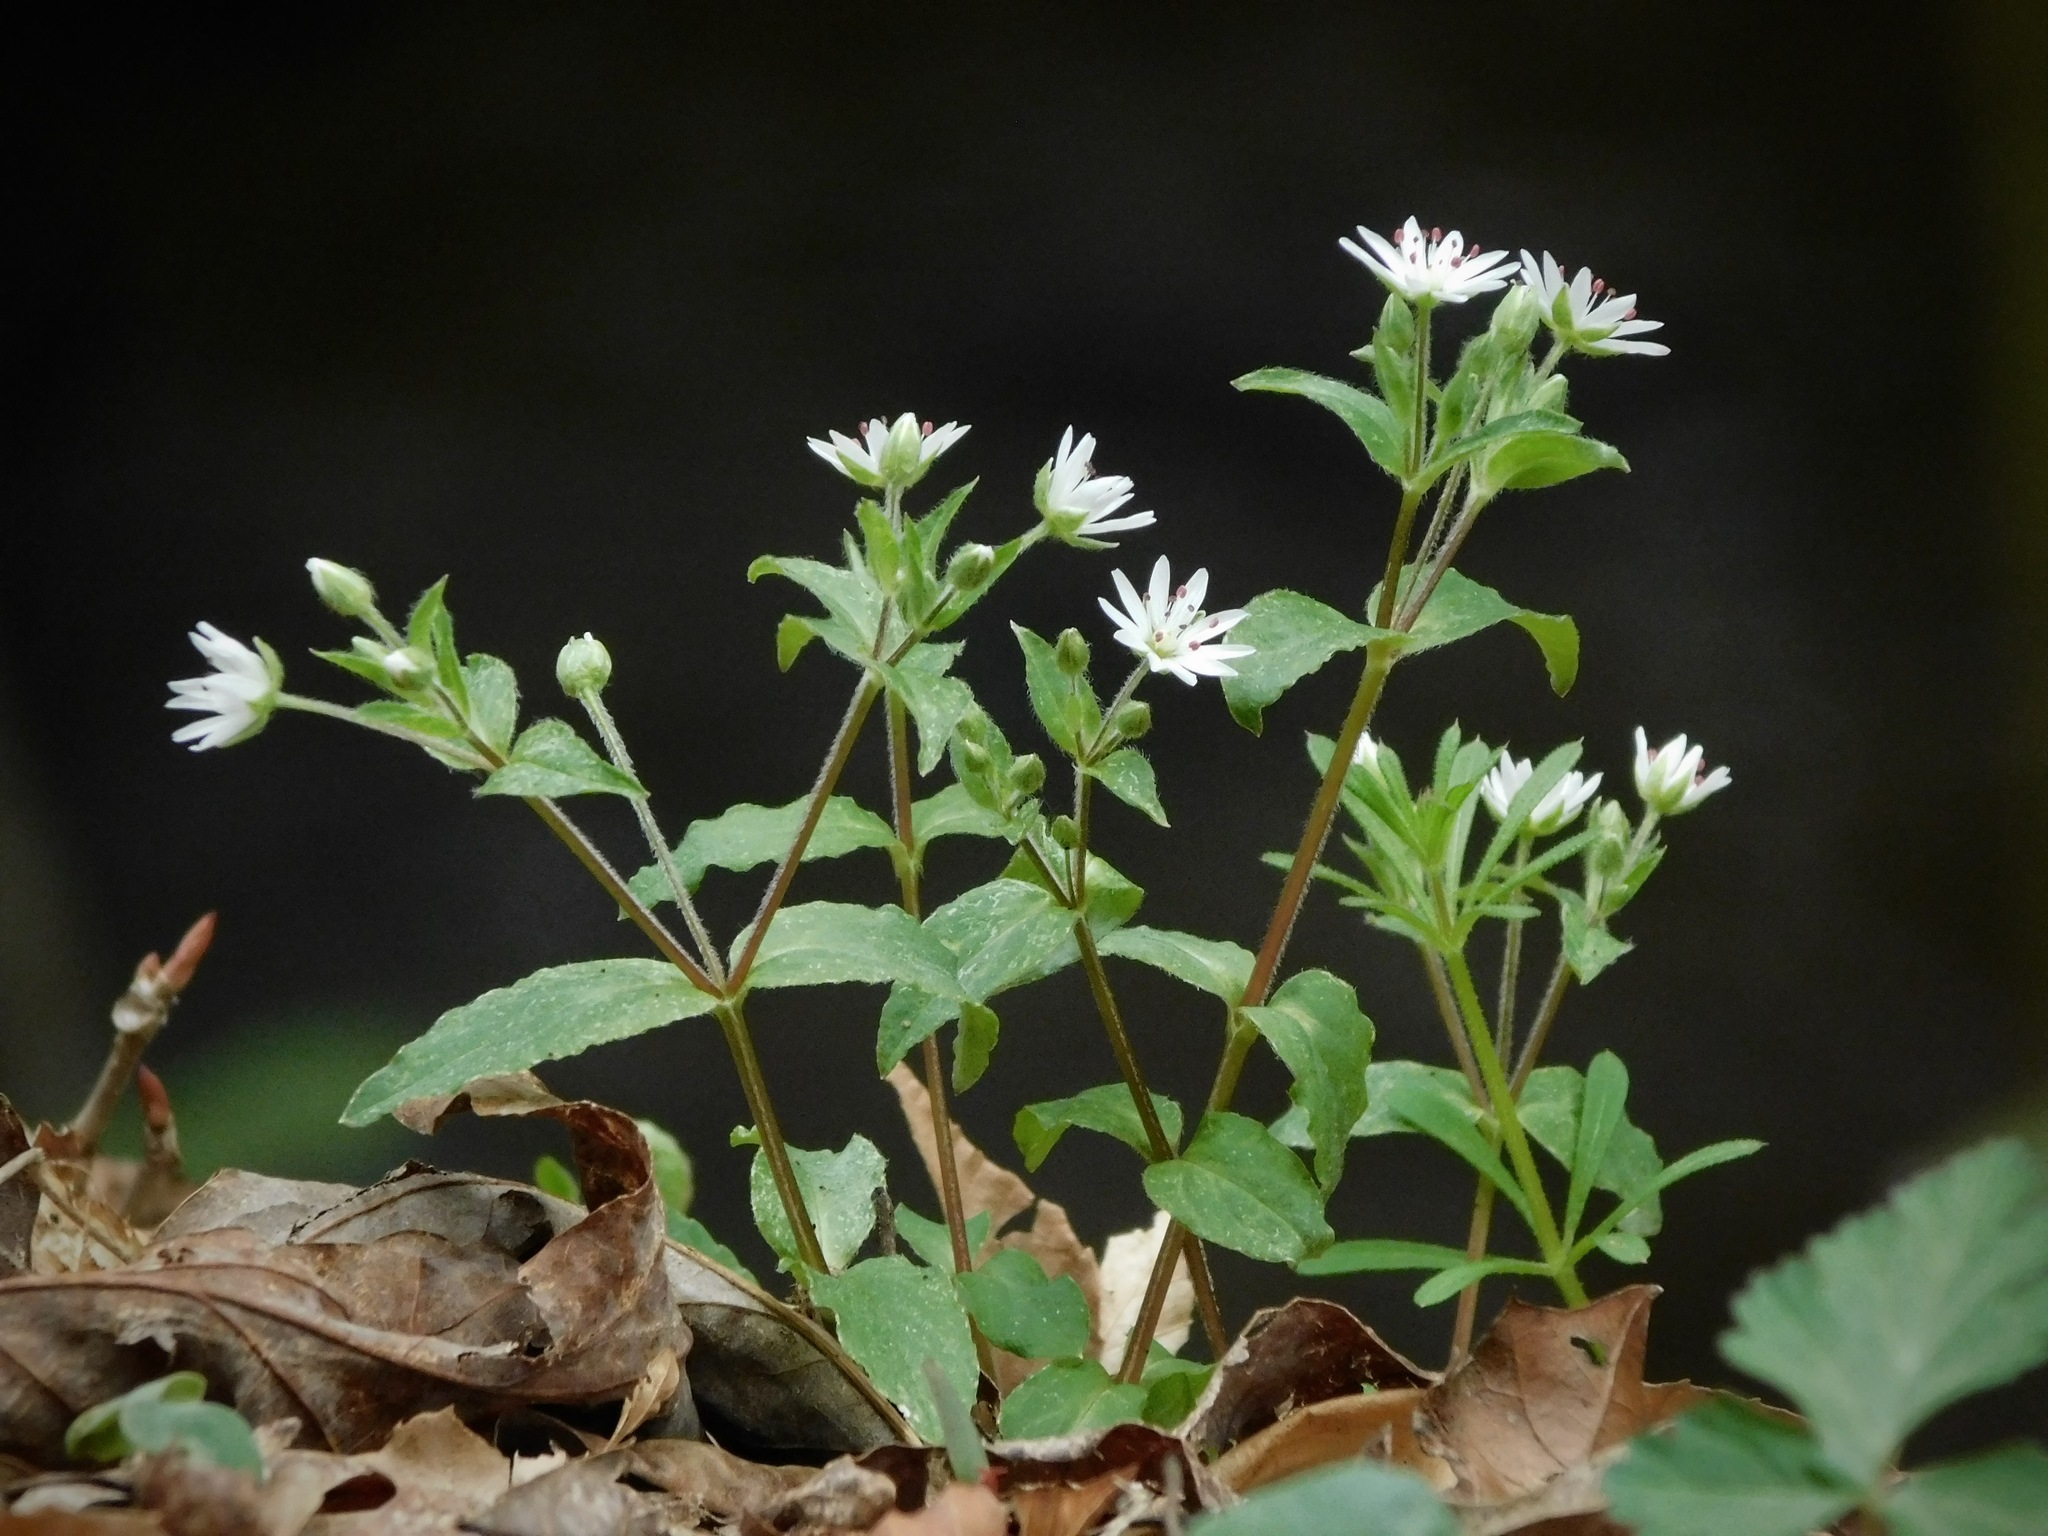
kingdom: Plantae
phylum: Tracheophyta
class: Magnoliopsida
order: Caryophyllales
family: Caryophyllaceae
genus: Stellaria
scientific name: Stellaria pubera
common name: Star chickweed
